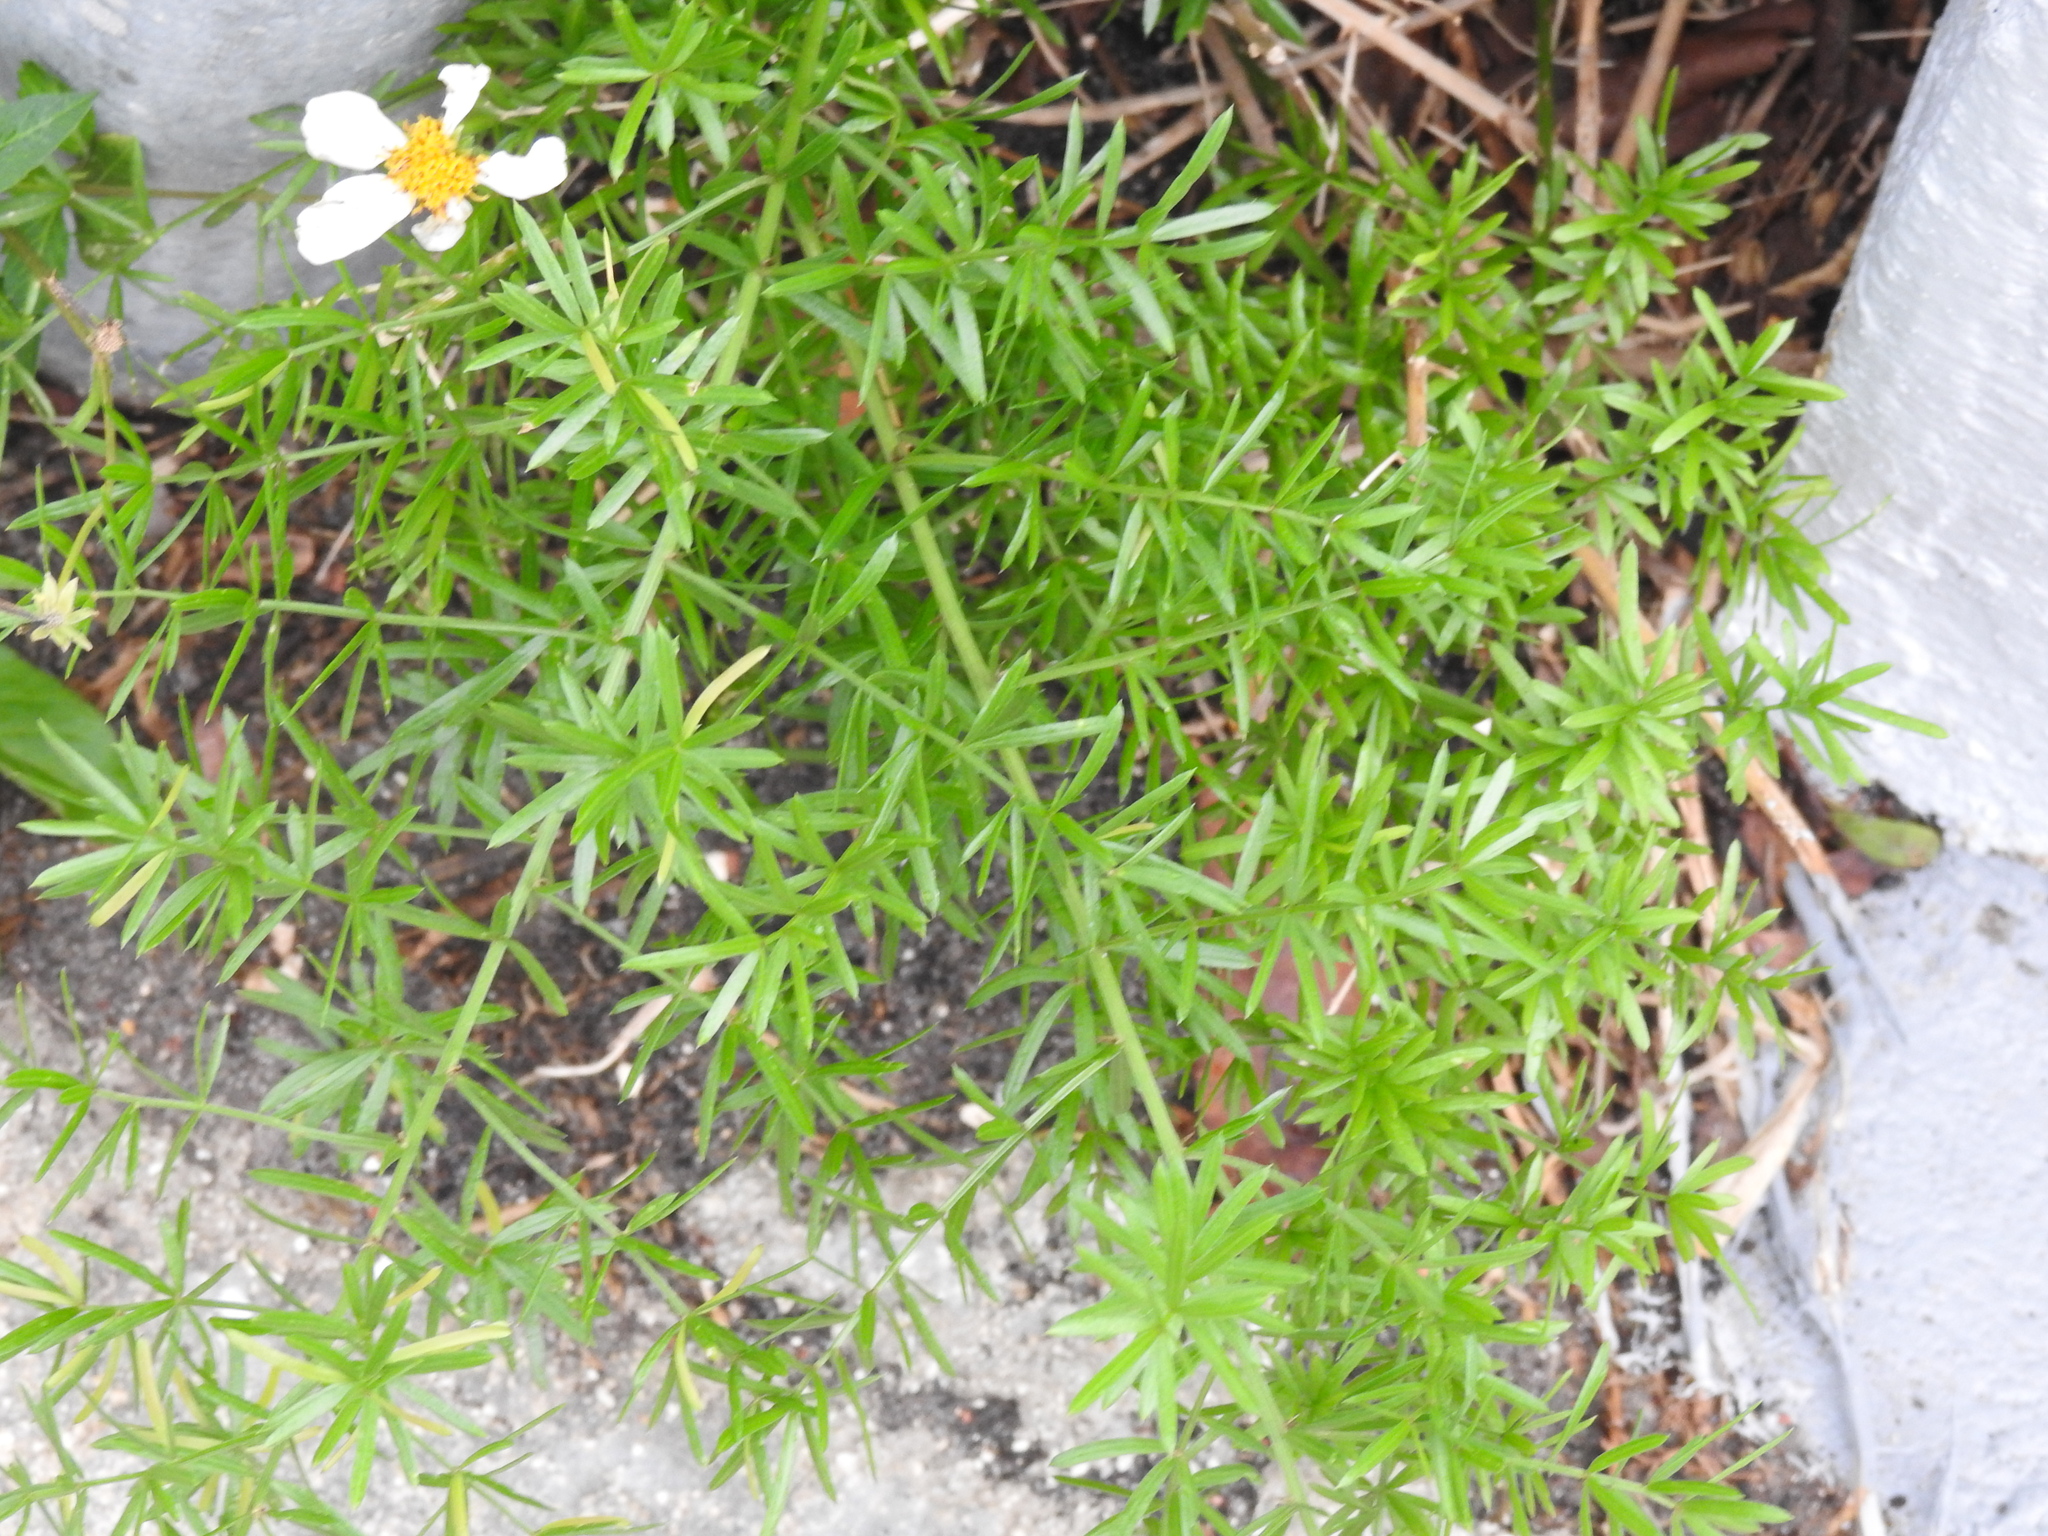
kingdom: Plantae
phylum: Tracheophyta
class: Liliopsida
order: Asparagales
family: Asparagaceae
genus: Asparagus
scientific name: Asparagus aethiopicus
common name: Sprenger's asparagus fern
